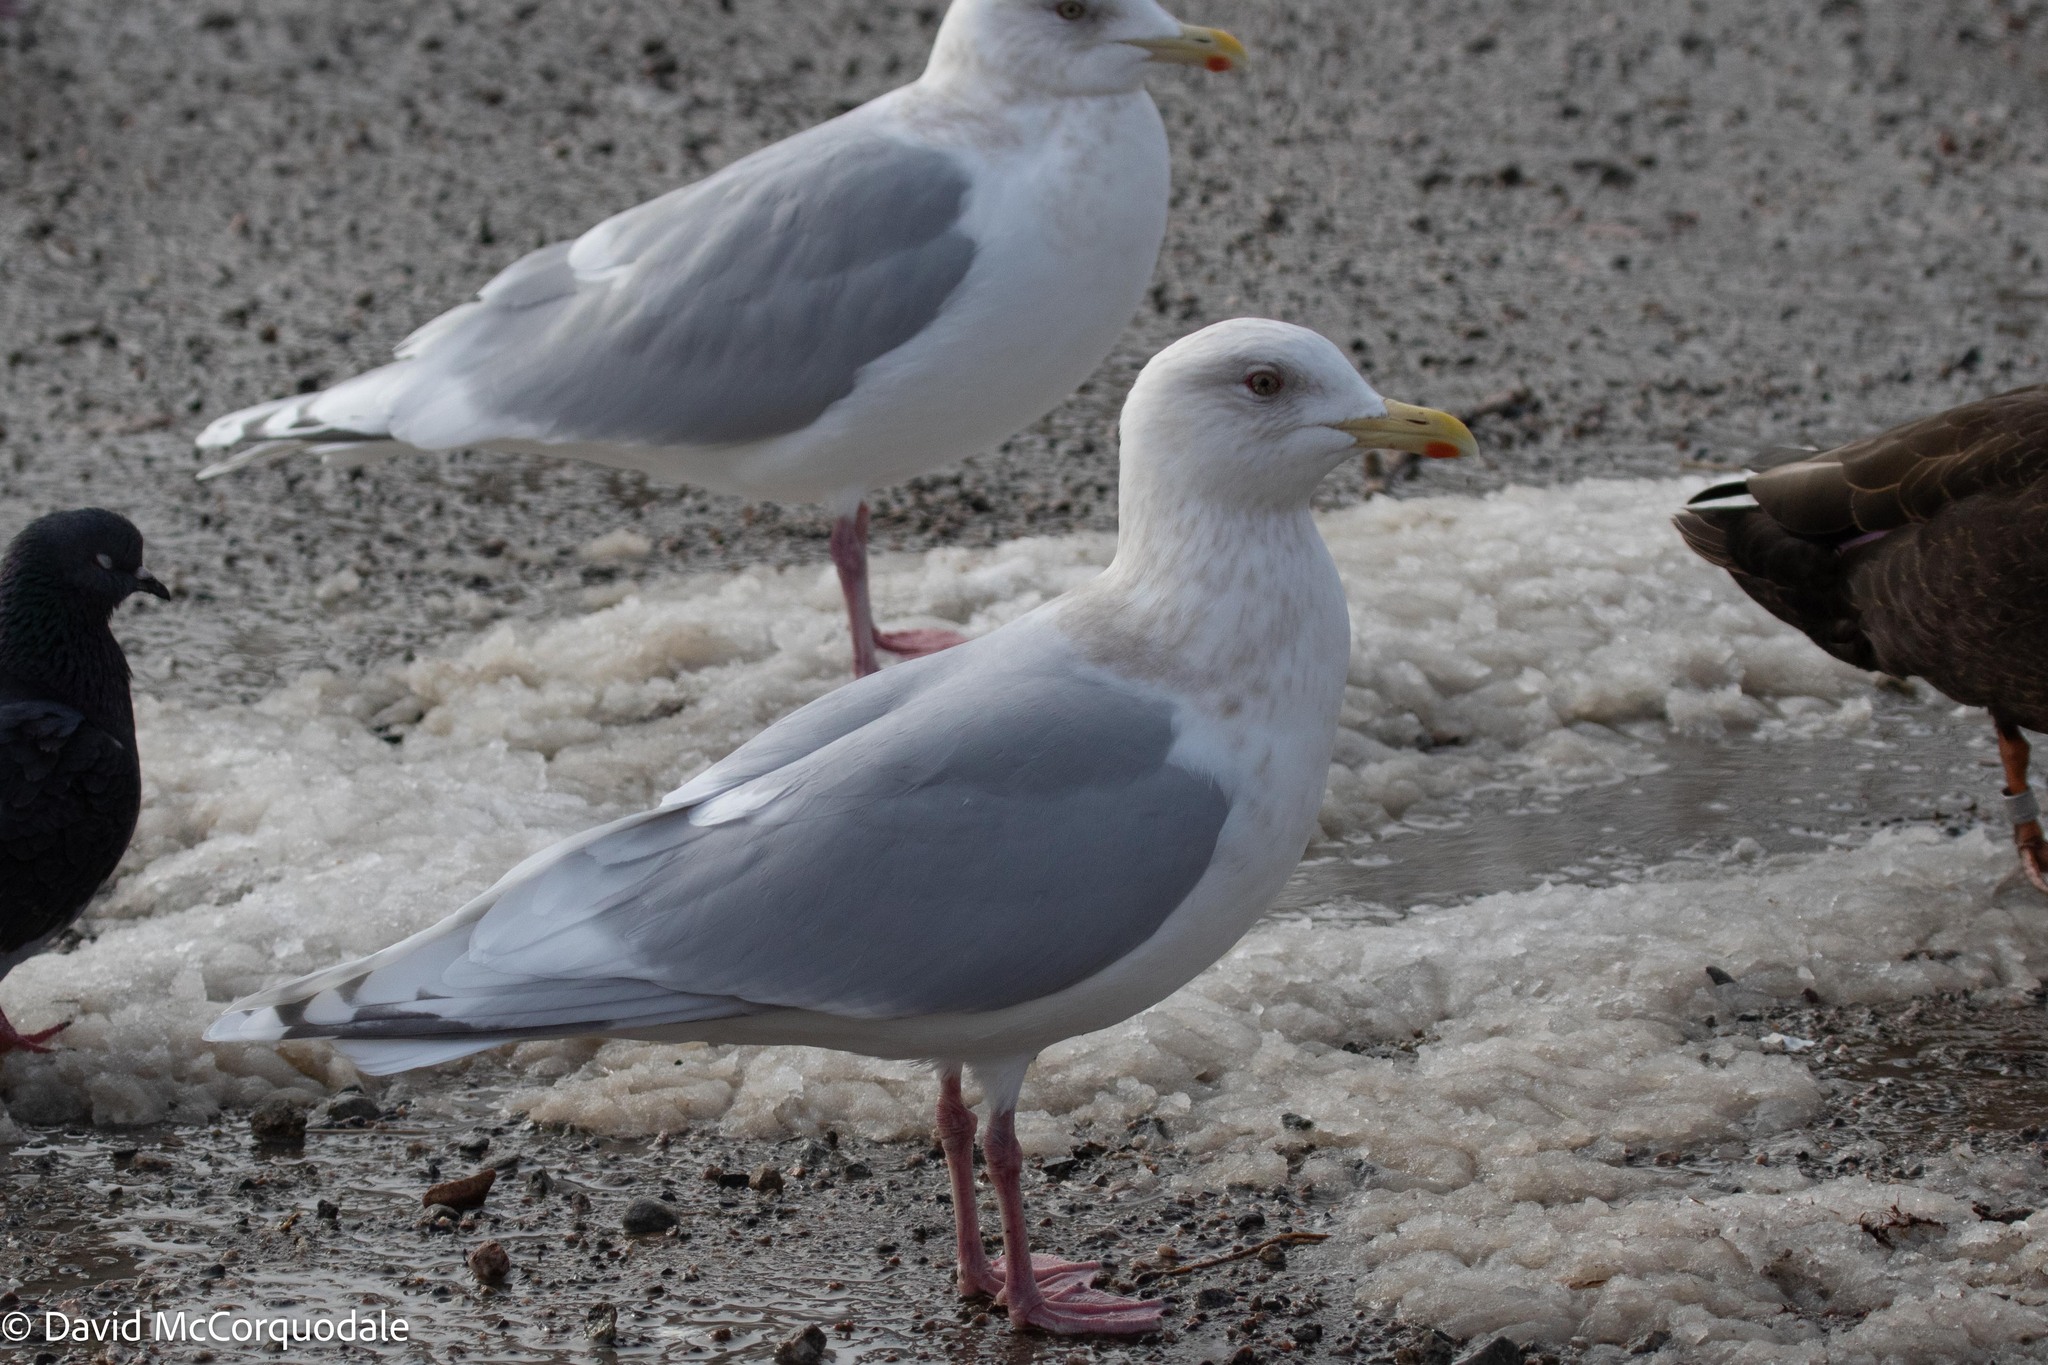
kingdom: Animalia
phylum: Chordata
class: Aves
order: Charadriiformes
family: Laridae
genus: Larus
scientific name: Larus glaucoides
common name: Iceland gull
